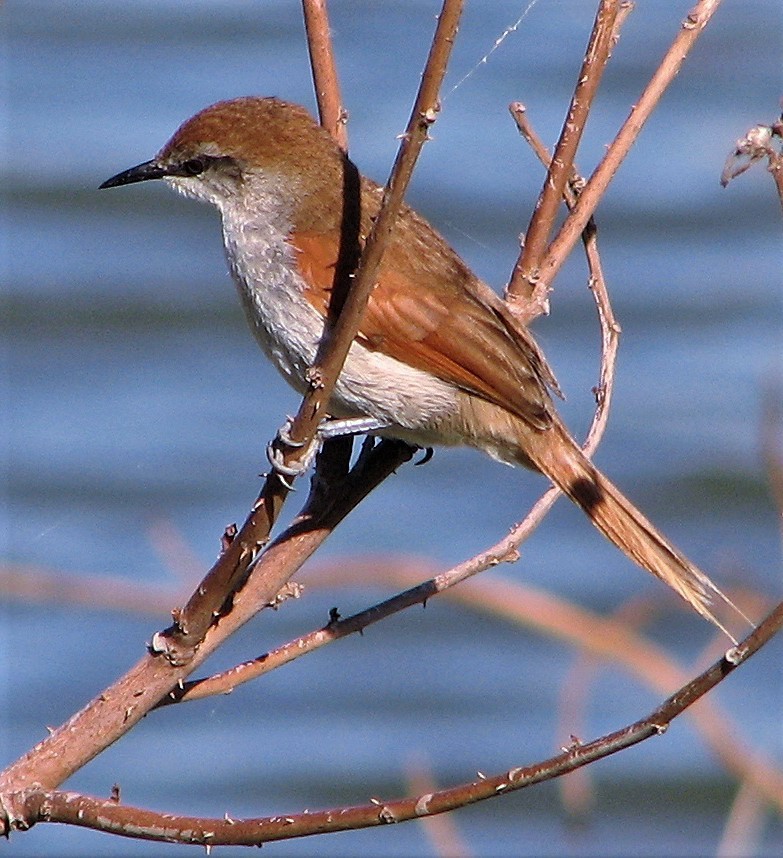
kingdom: Animalia
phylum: Chordata
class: Aves
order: Passeriformes
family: Furnariidae
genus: Certhiaxis
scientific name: Certhiaxis cinnamomeus
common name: Yellow-chinned spinetail
